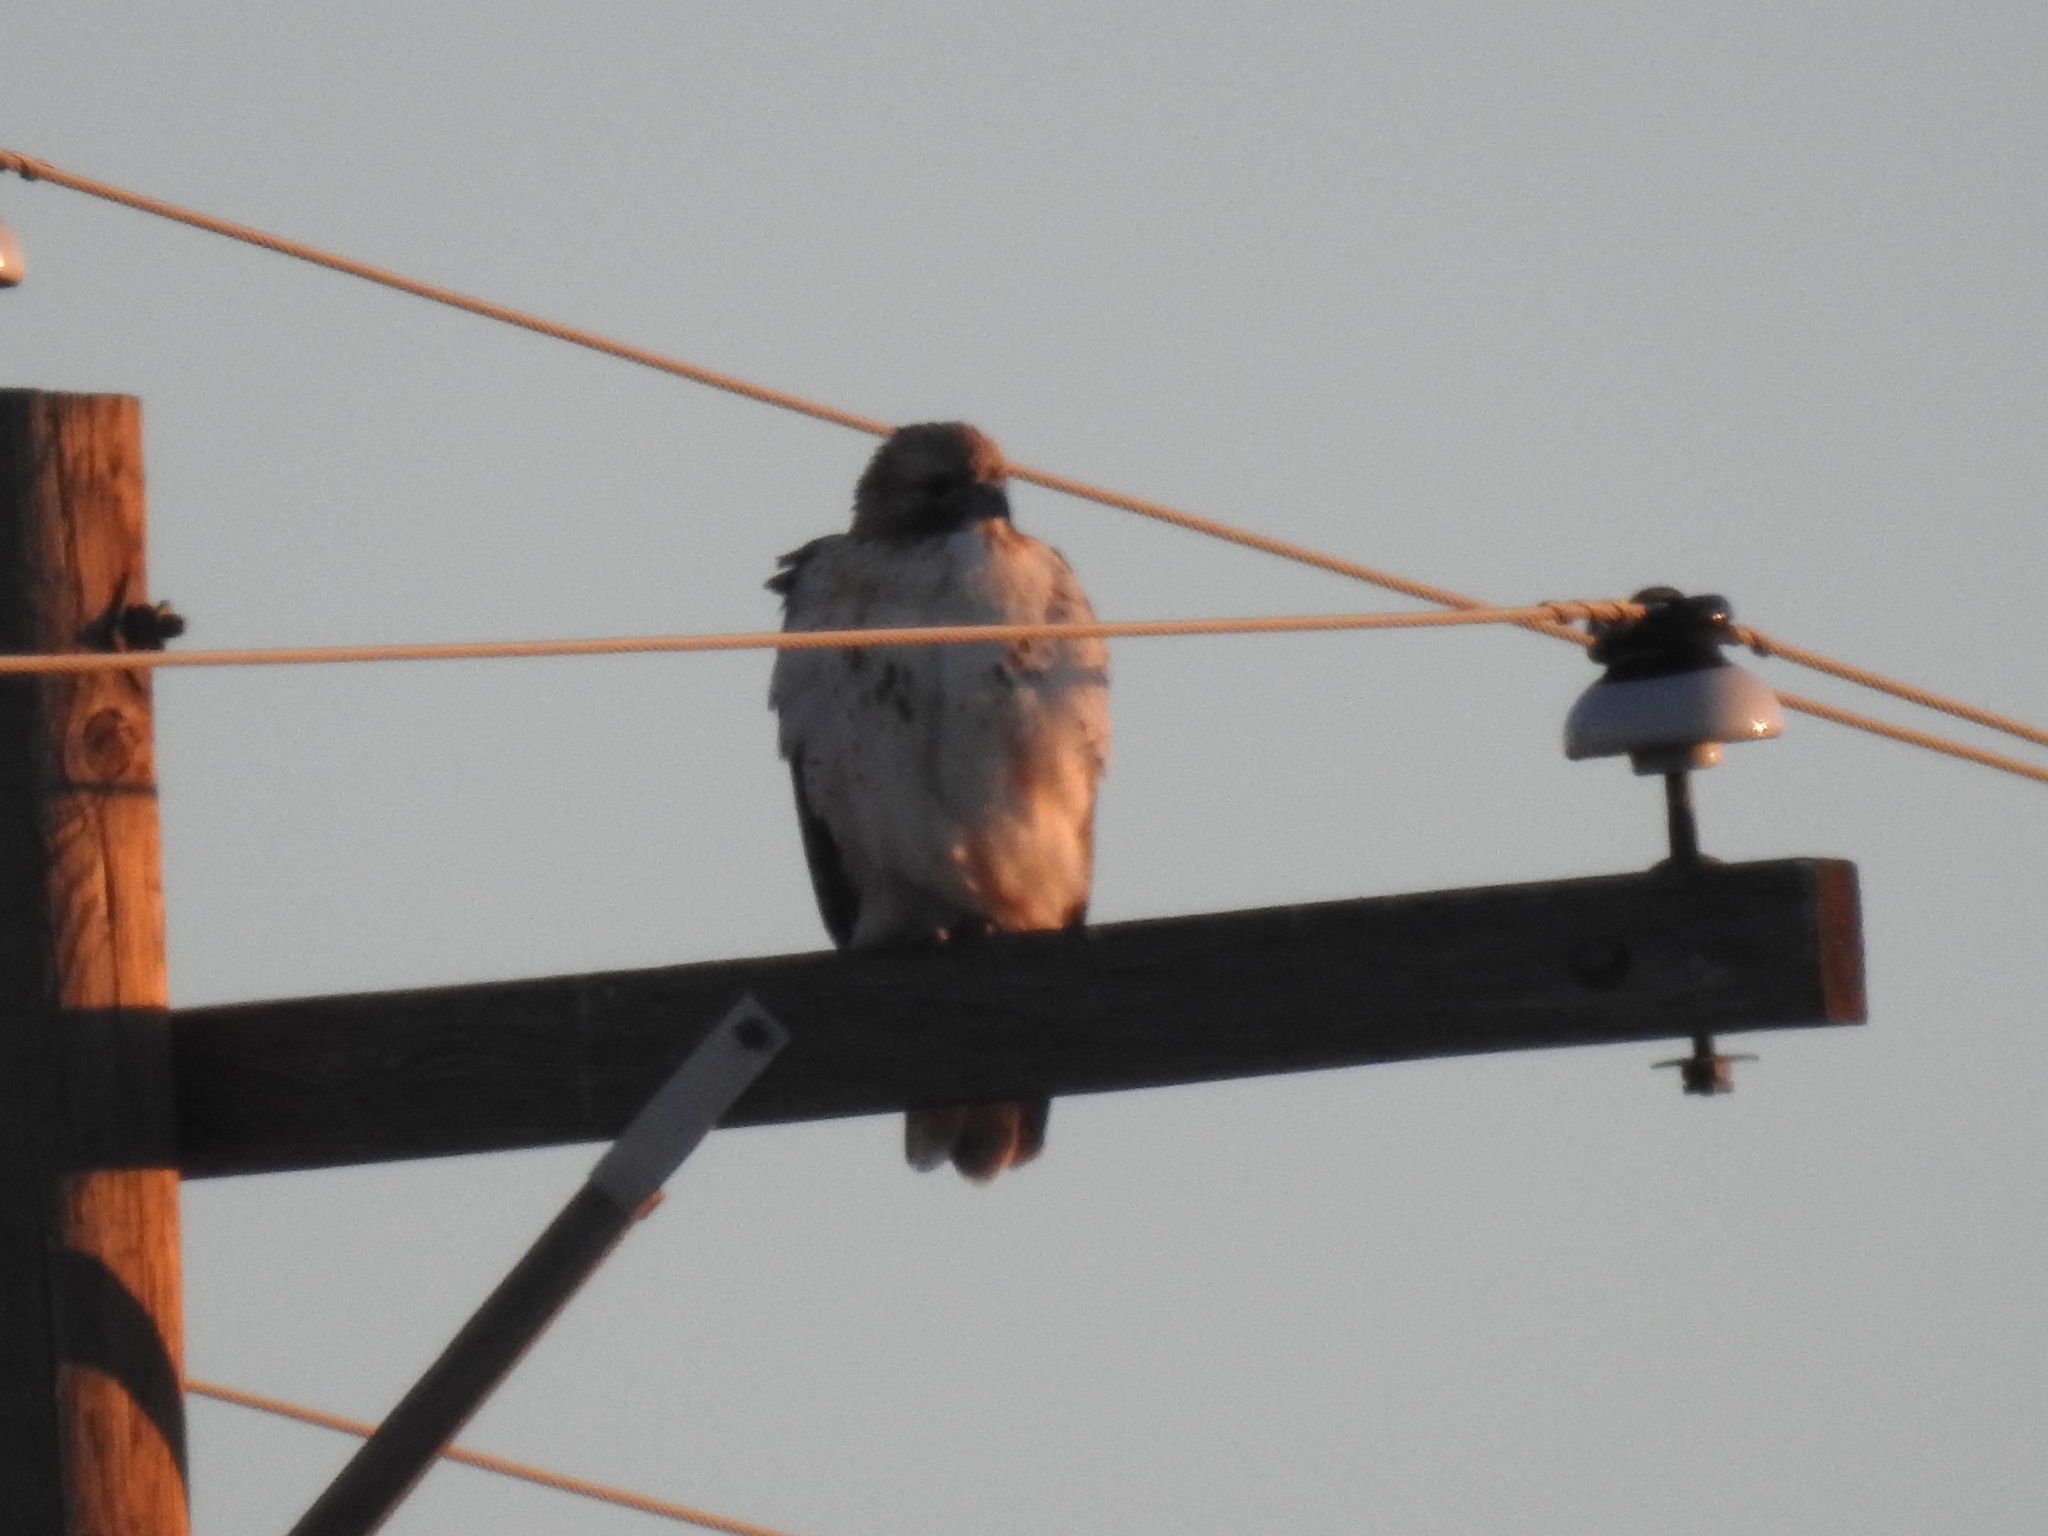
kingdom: Animalia
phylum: Chordata
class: Aves
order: Accipitriformes
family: Accipitridae
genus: Buteo
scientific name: Buteo jamaicensis
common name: Red-tailed hawk
